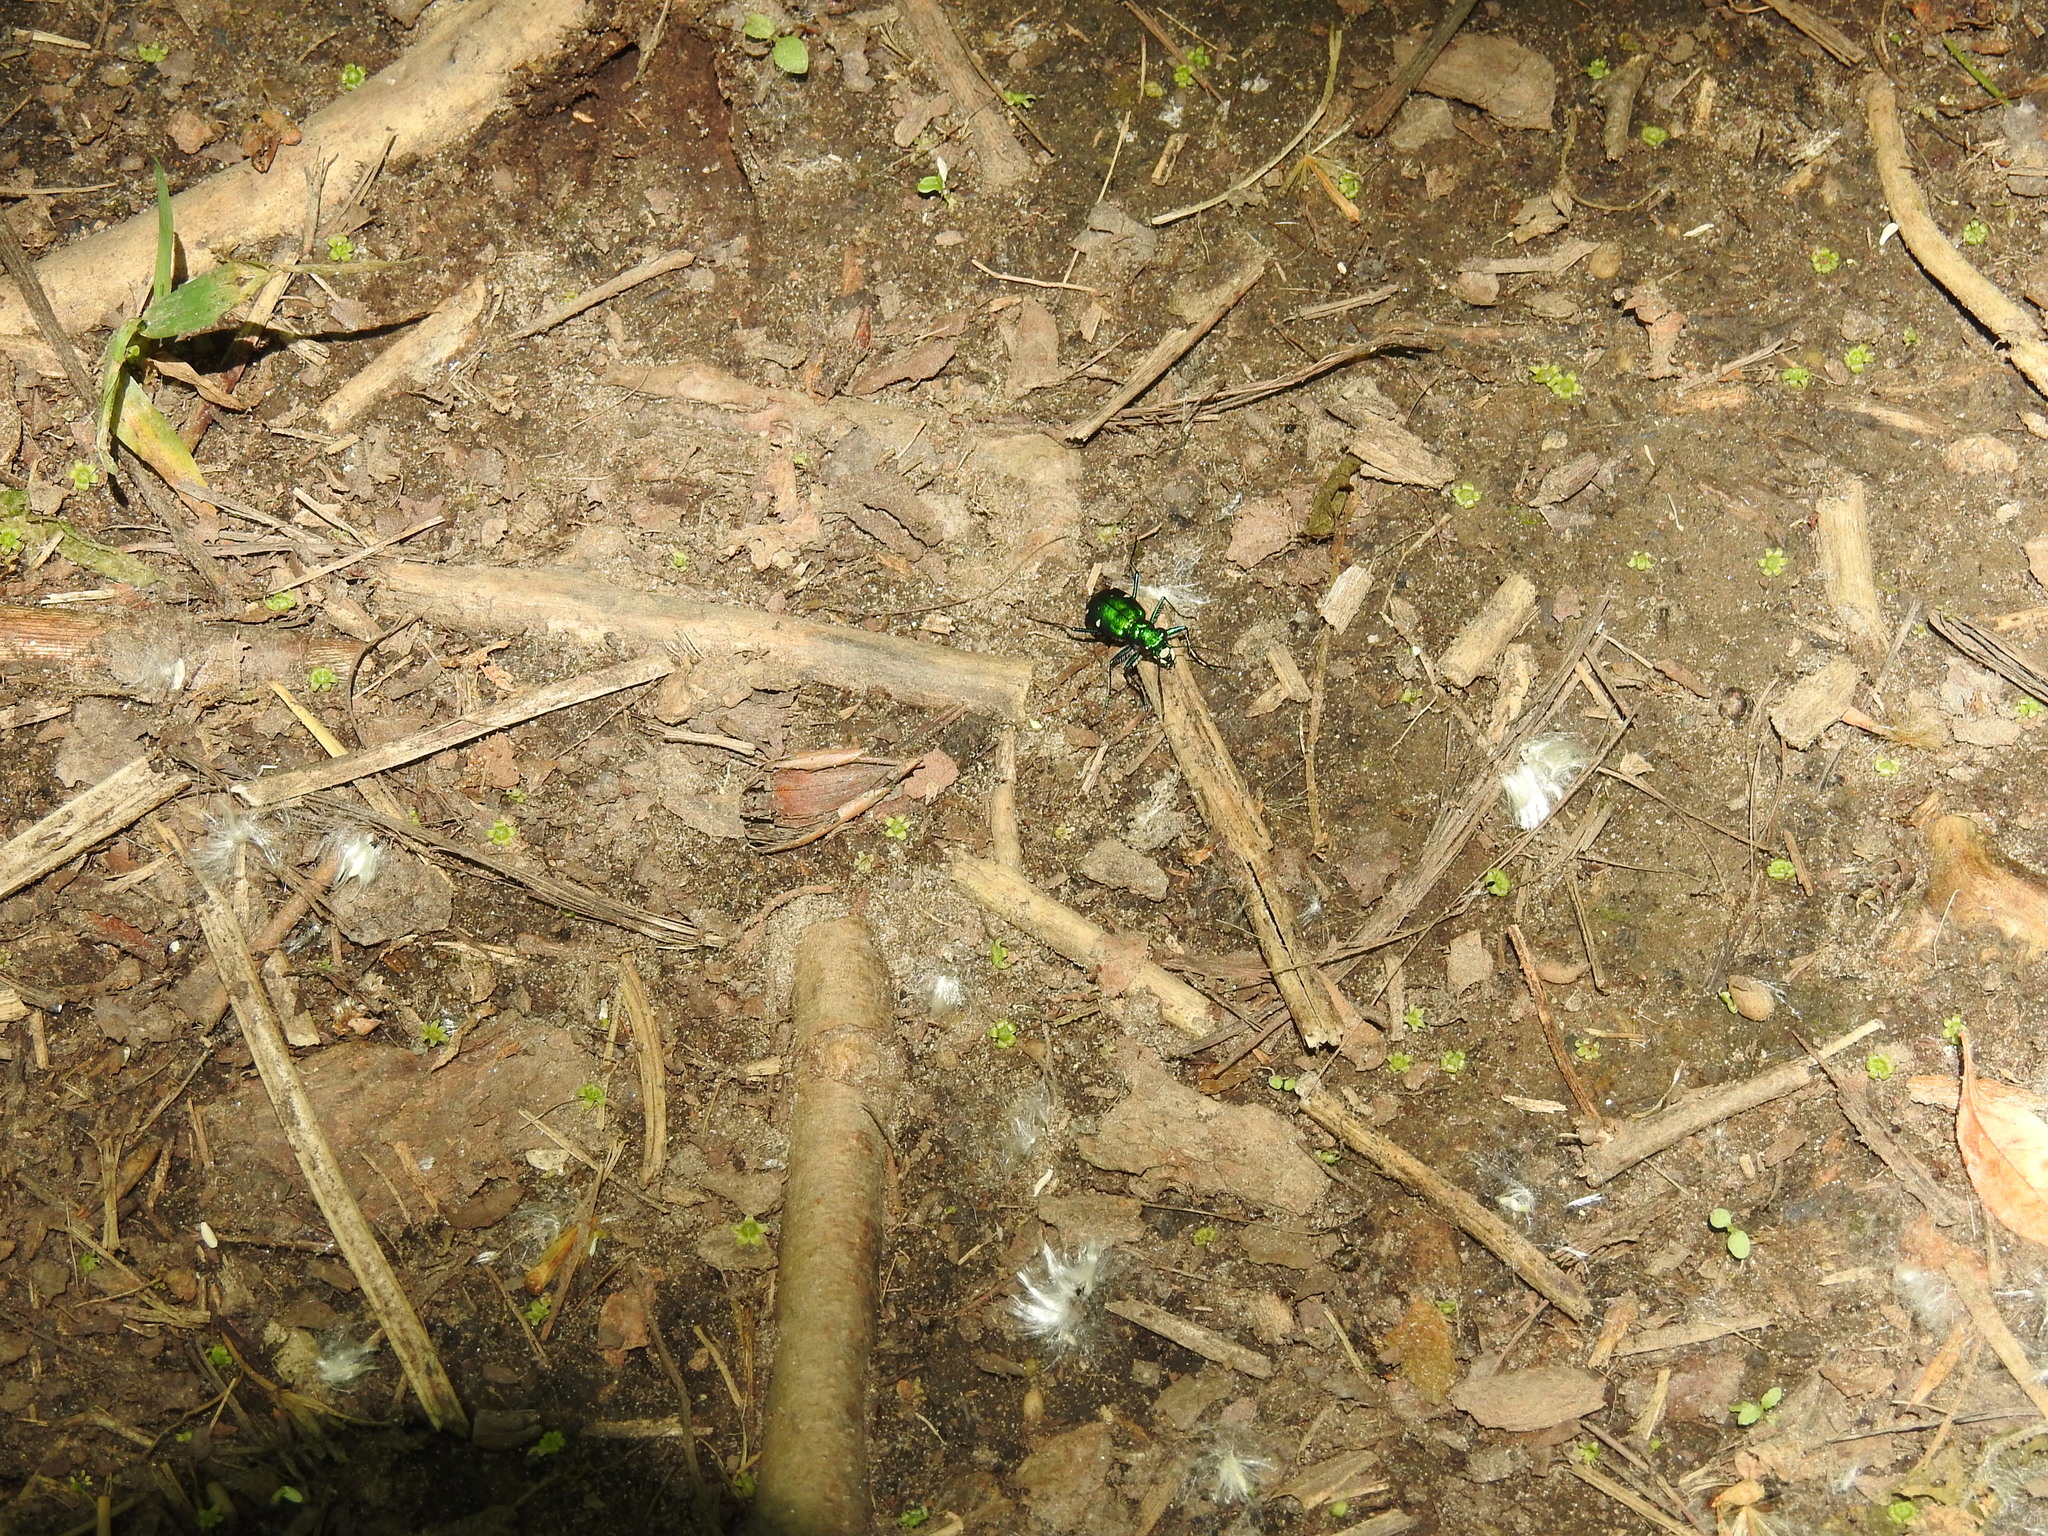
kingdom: Animalia
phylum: Arthropoda
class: Insecta
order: Coleoptera
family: Carabidae
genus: Cicindela
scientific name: Cicindela sexguttata
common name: Six-spotted tiger beetle
